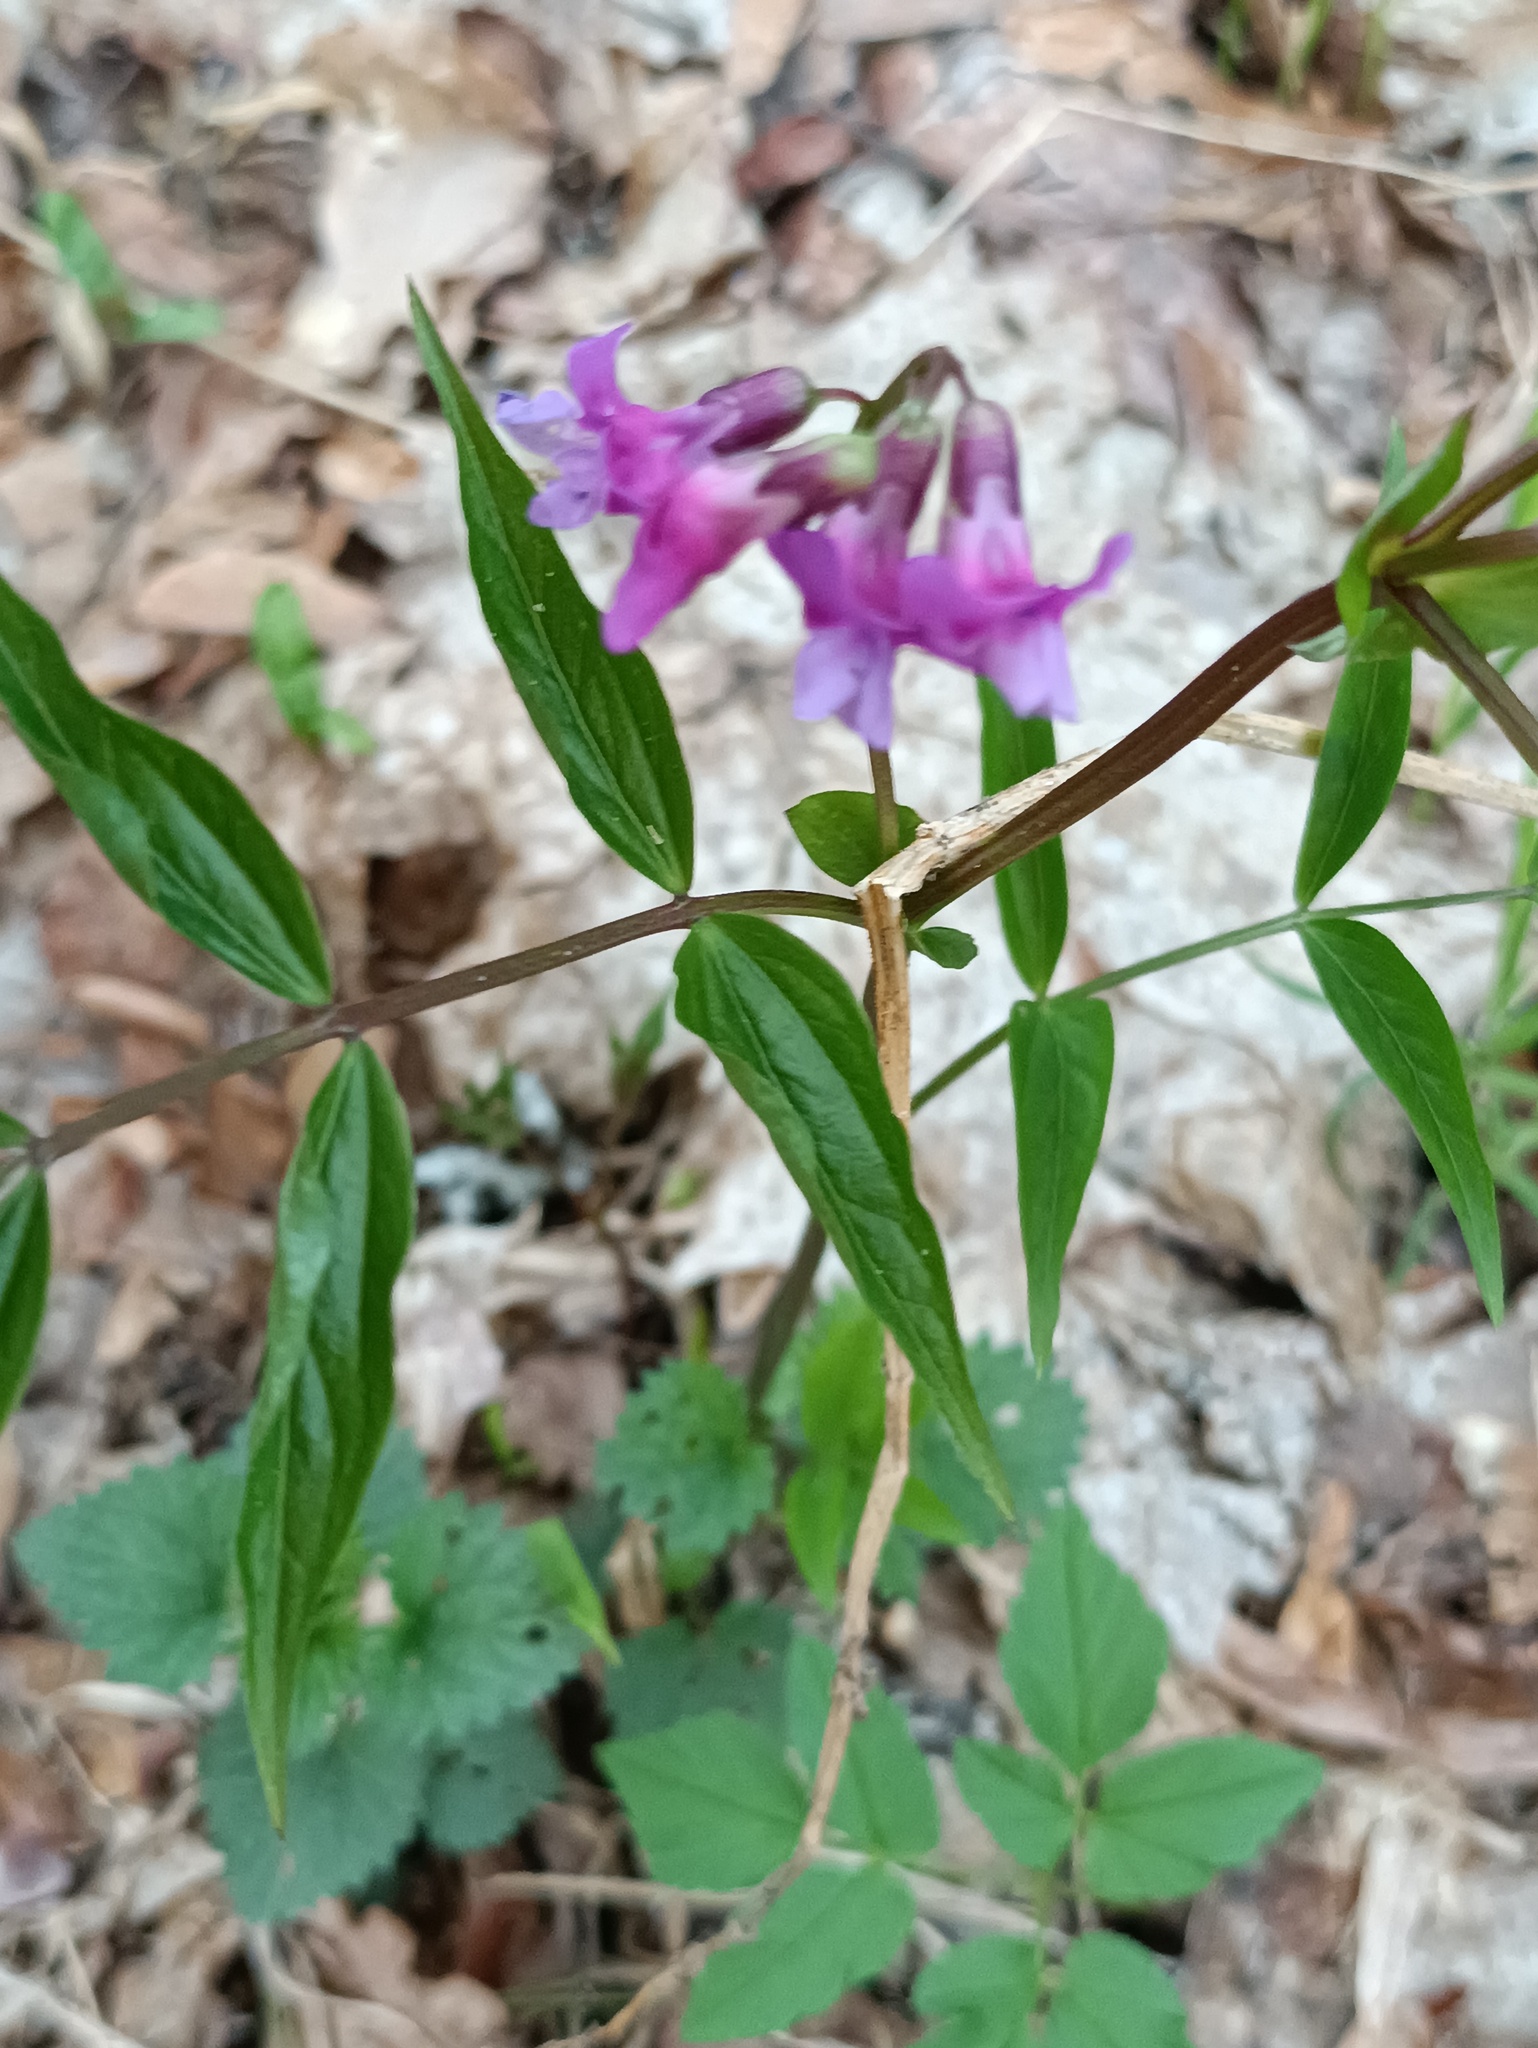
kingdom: Plantae
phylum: Tracheophyta
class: Magnoliopsida
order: Fabales
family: Fabaceae
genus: Lathyrus
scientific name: Lathyrus vernus
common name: Spring pea
